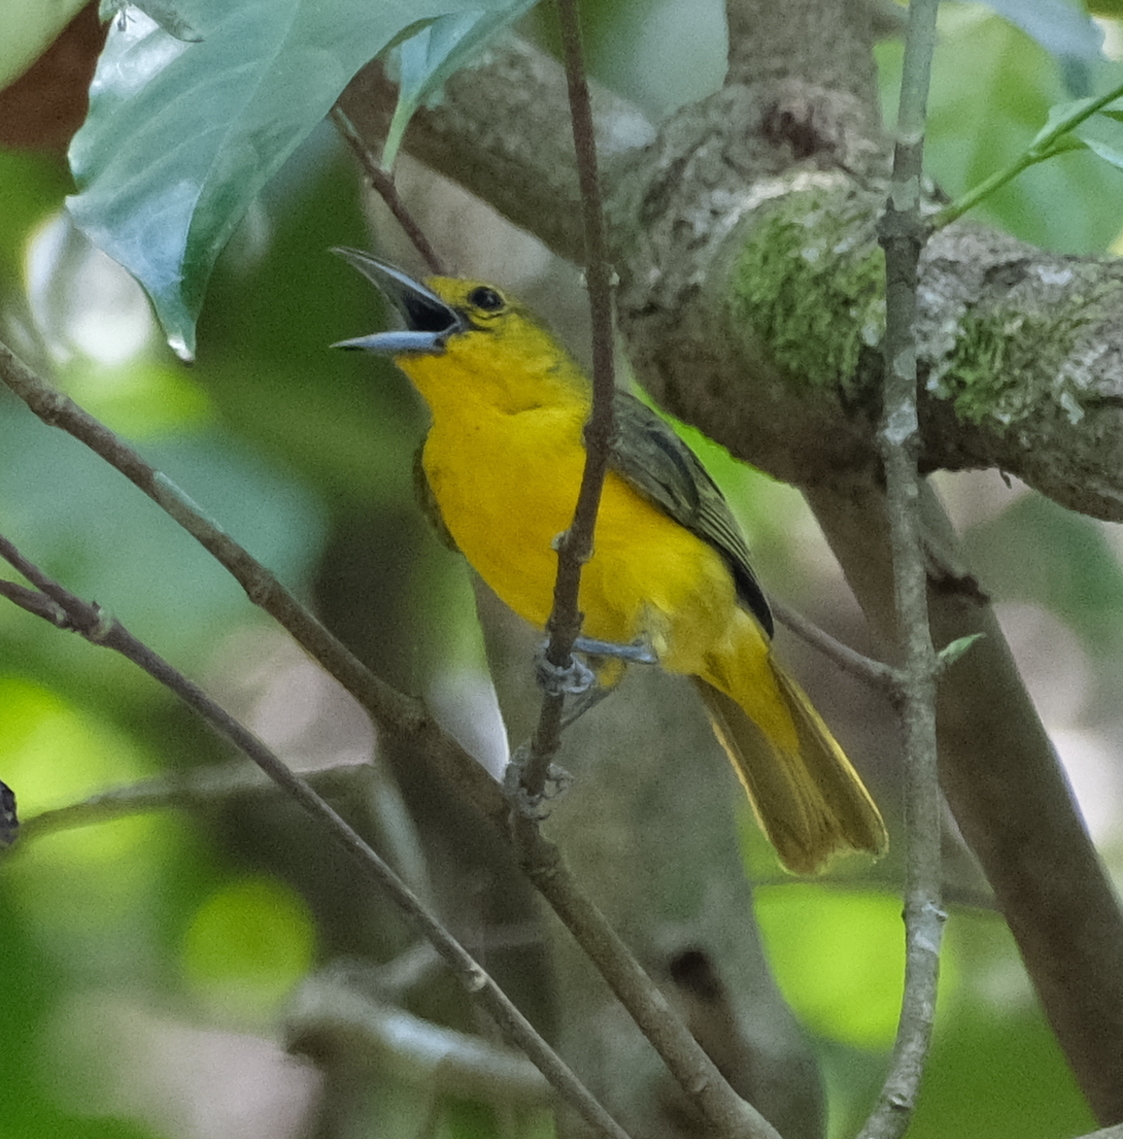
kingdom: Animalia
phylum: Chordata
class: Aves
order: Passeriformes
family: Aegithinidae
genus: Aegithina
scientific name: Aegithina lafresnayei
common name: Great iora
